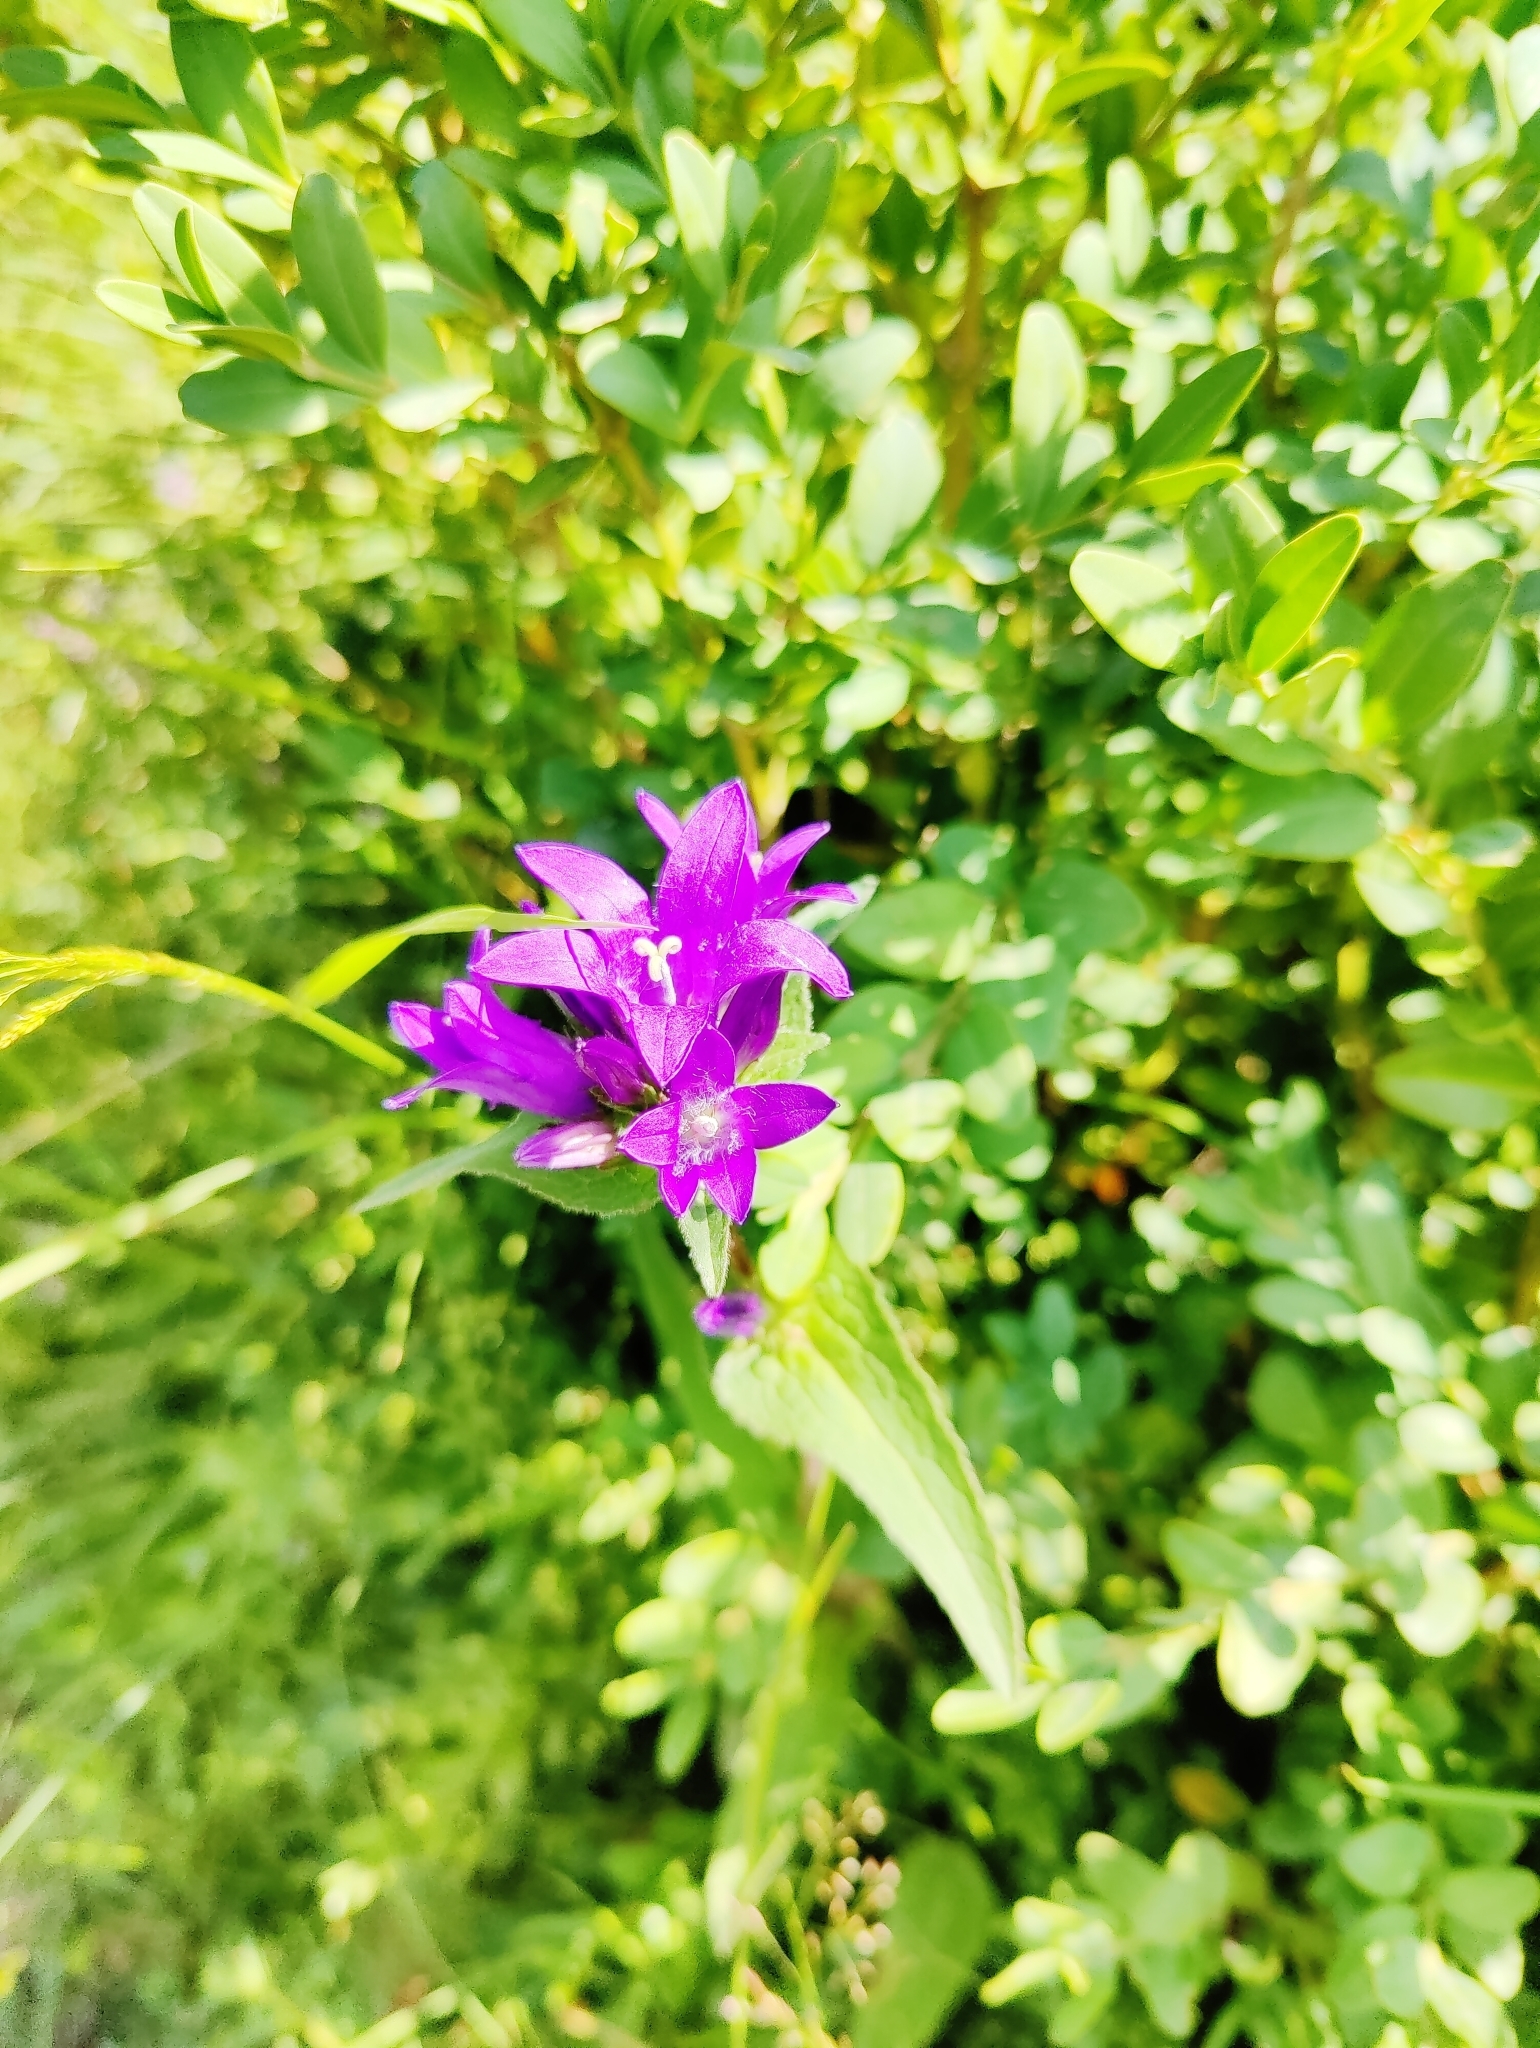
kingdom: Plantae
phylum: Tracheophyta
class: Magnoliopsida
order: Asterales
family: Campanulaceae
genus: Campanula
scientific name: Campanula glomerata
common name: Clustered bellflower
